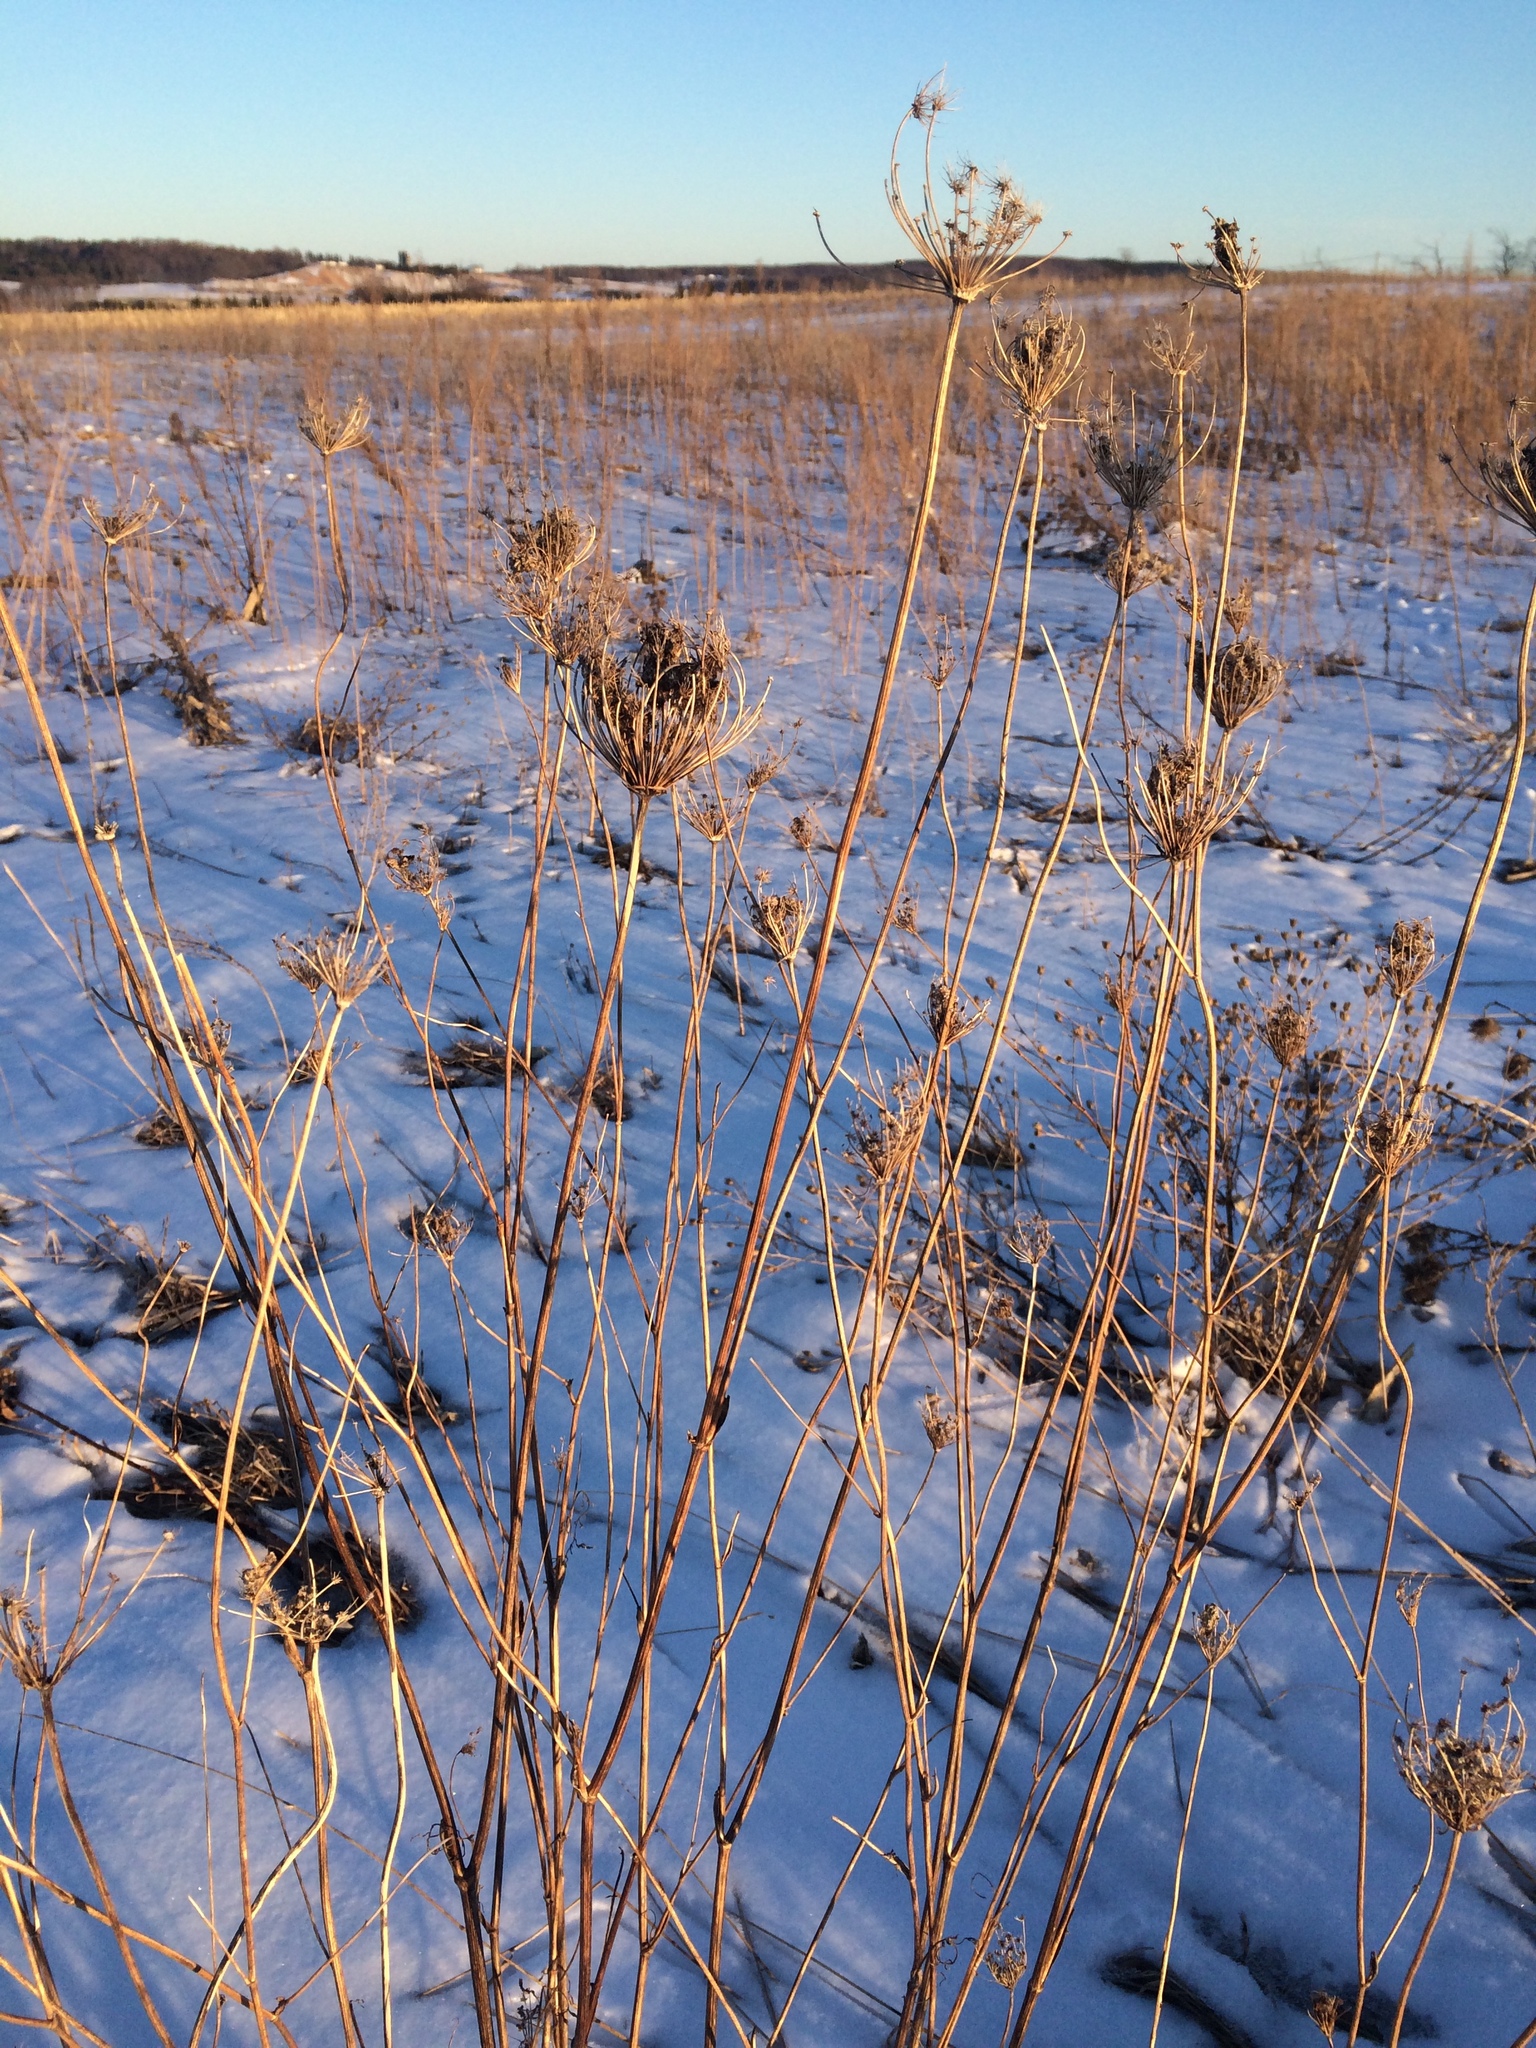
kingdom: Plantae
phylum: Tracheophyta
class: Magnoliopsida
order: Apiales
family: Apiaceae
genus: Daucus
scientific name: Daucus carota
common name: Wild carrot
